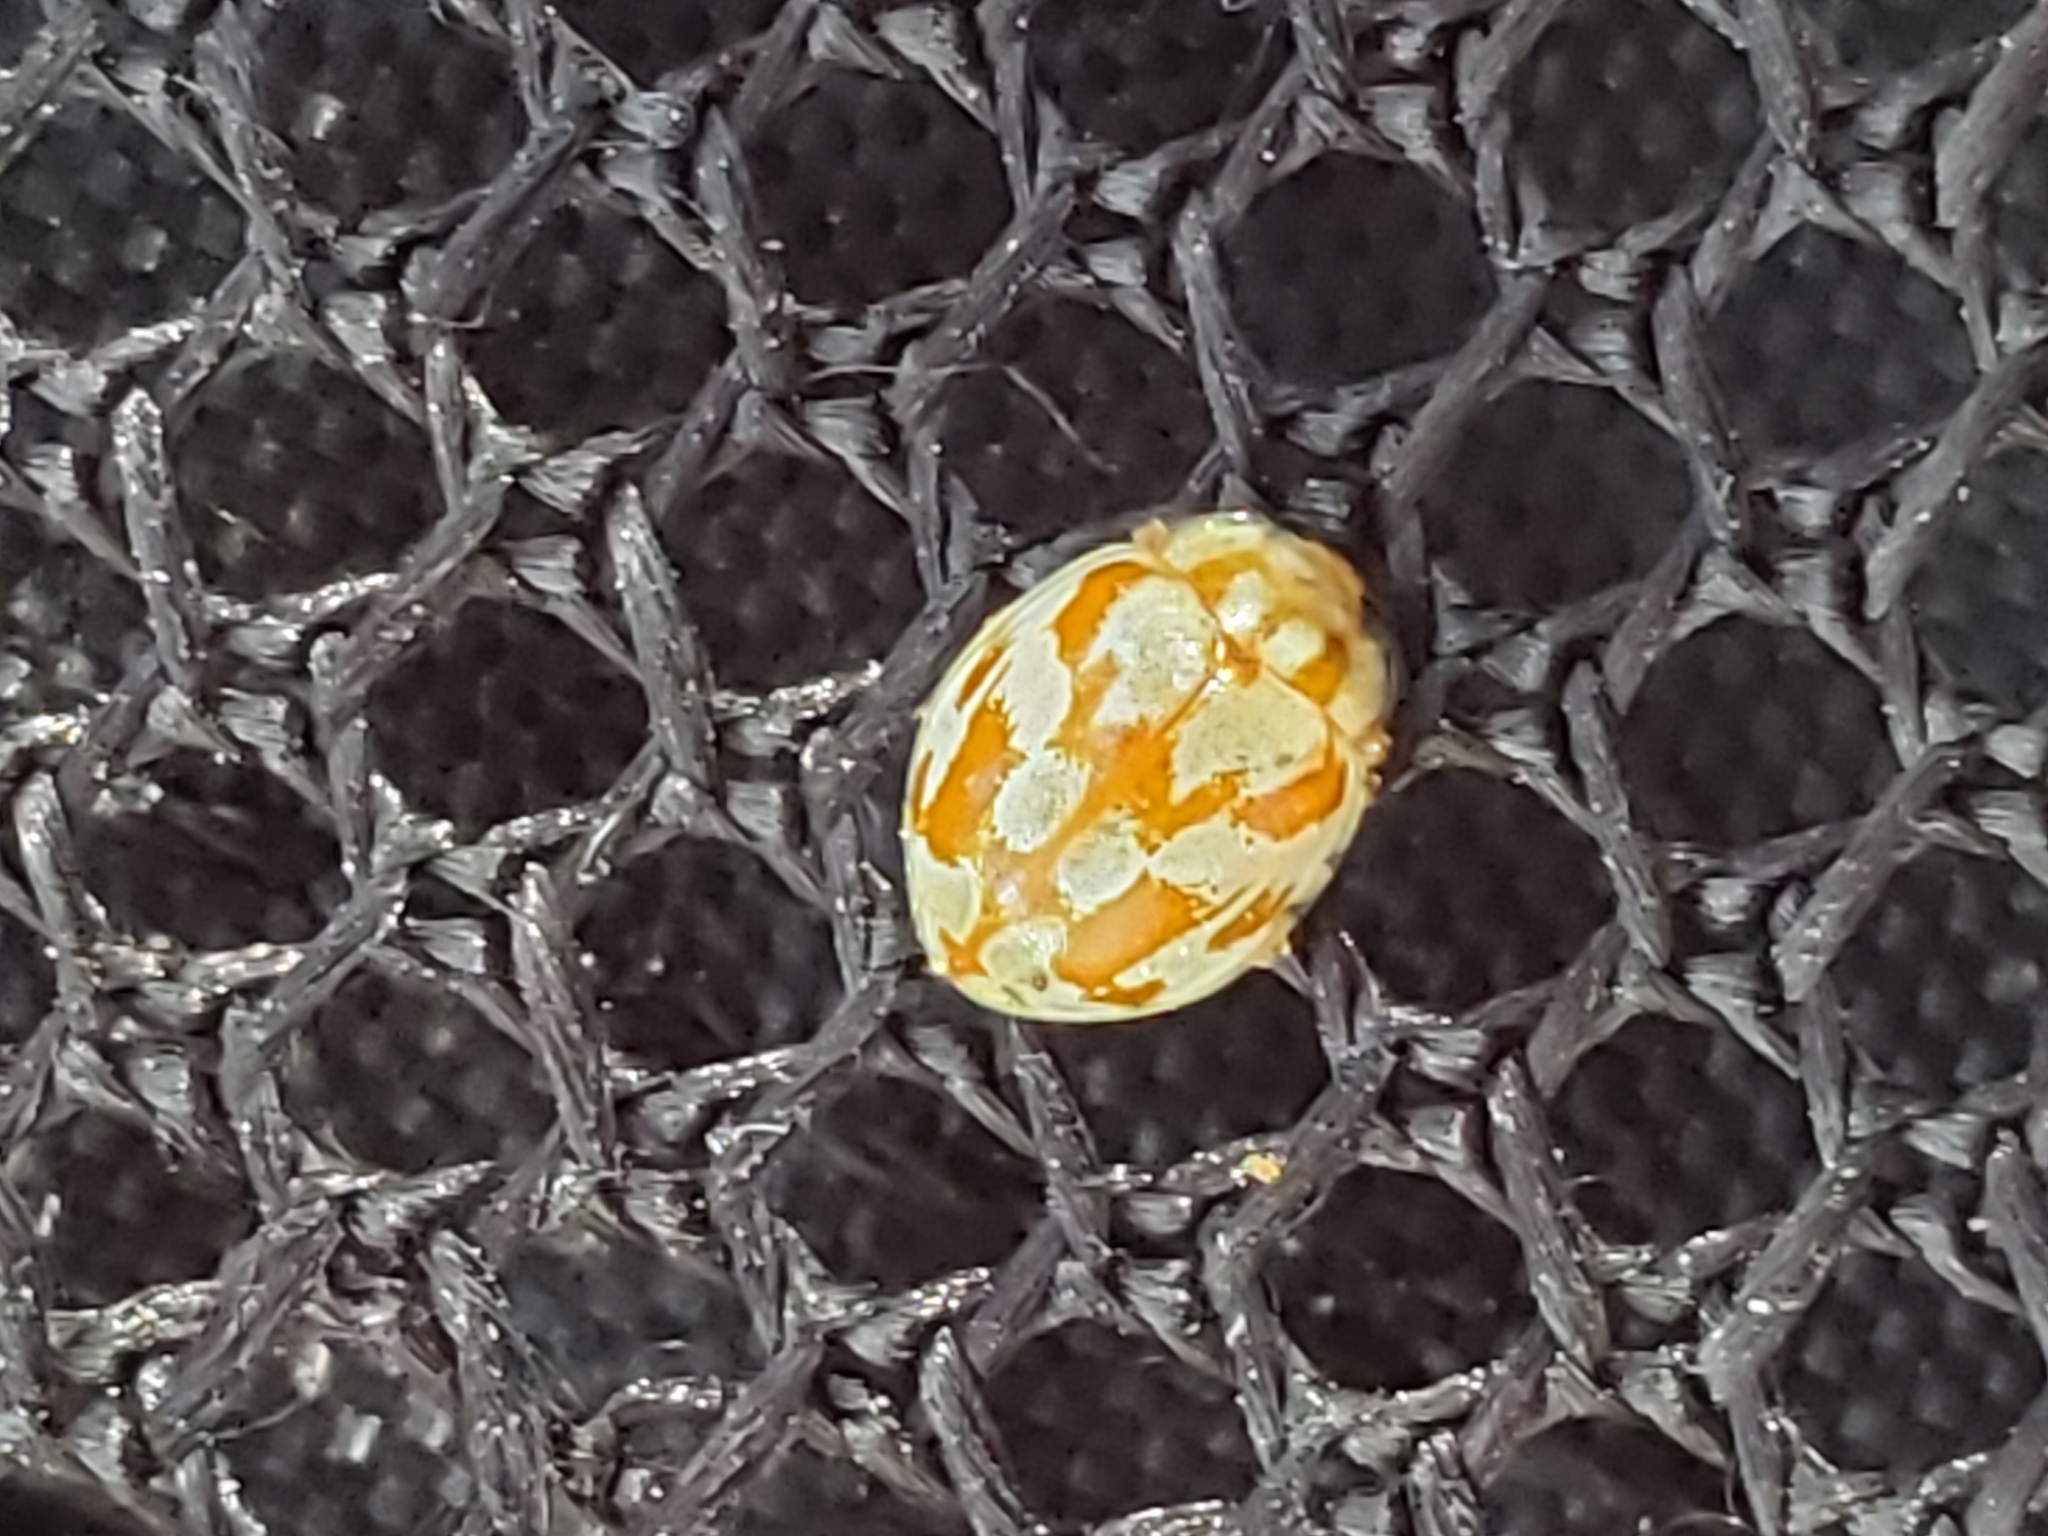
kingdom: Animalia
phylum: Arthropoda
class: Insecta
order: Coleoptera
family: Coccinellidae
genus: Myrrha
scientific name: Myrrha octodecimguttata
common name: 18-spot ladybird
